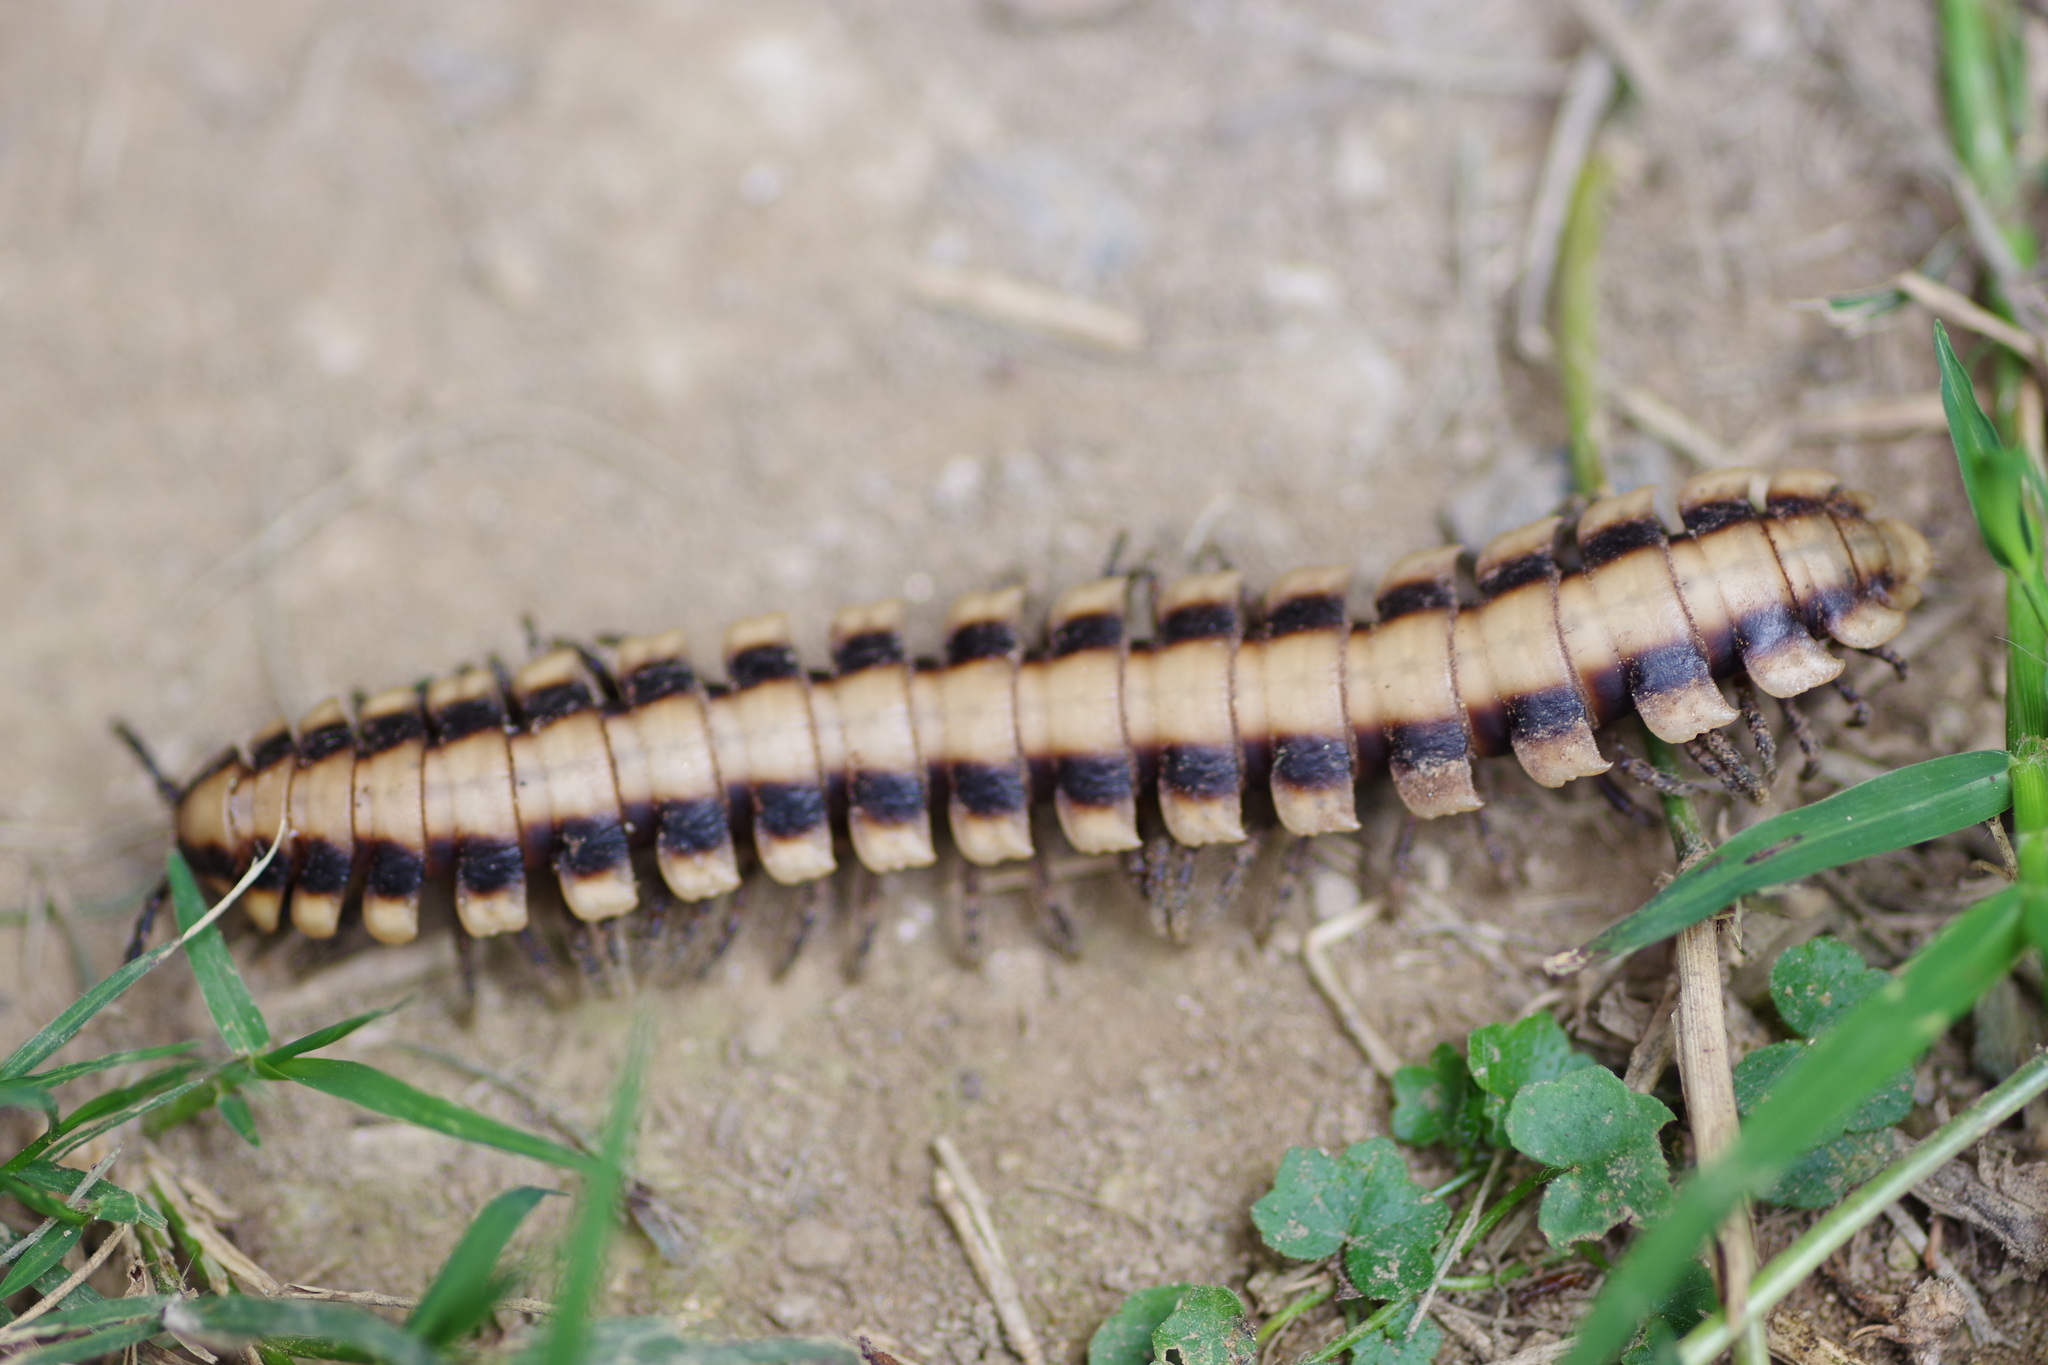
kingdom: Animalia
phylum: Arthropoda
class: Diplopoda
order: Polydesmida
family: Platyrhacidae
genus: Nyssodesmus
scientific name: Nyssodesmus python
